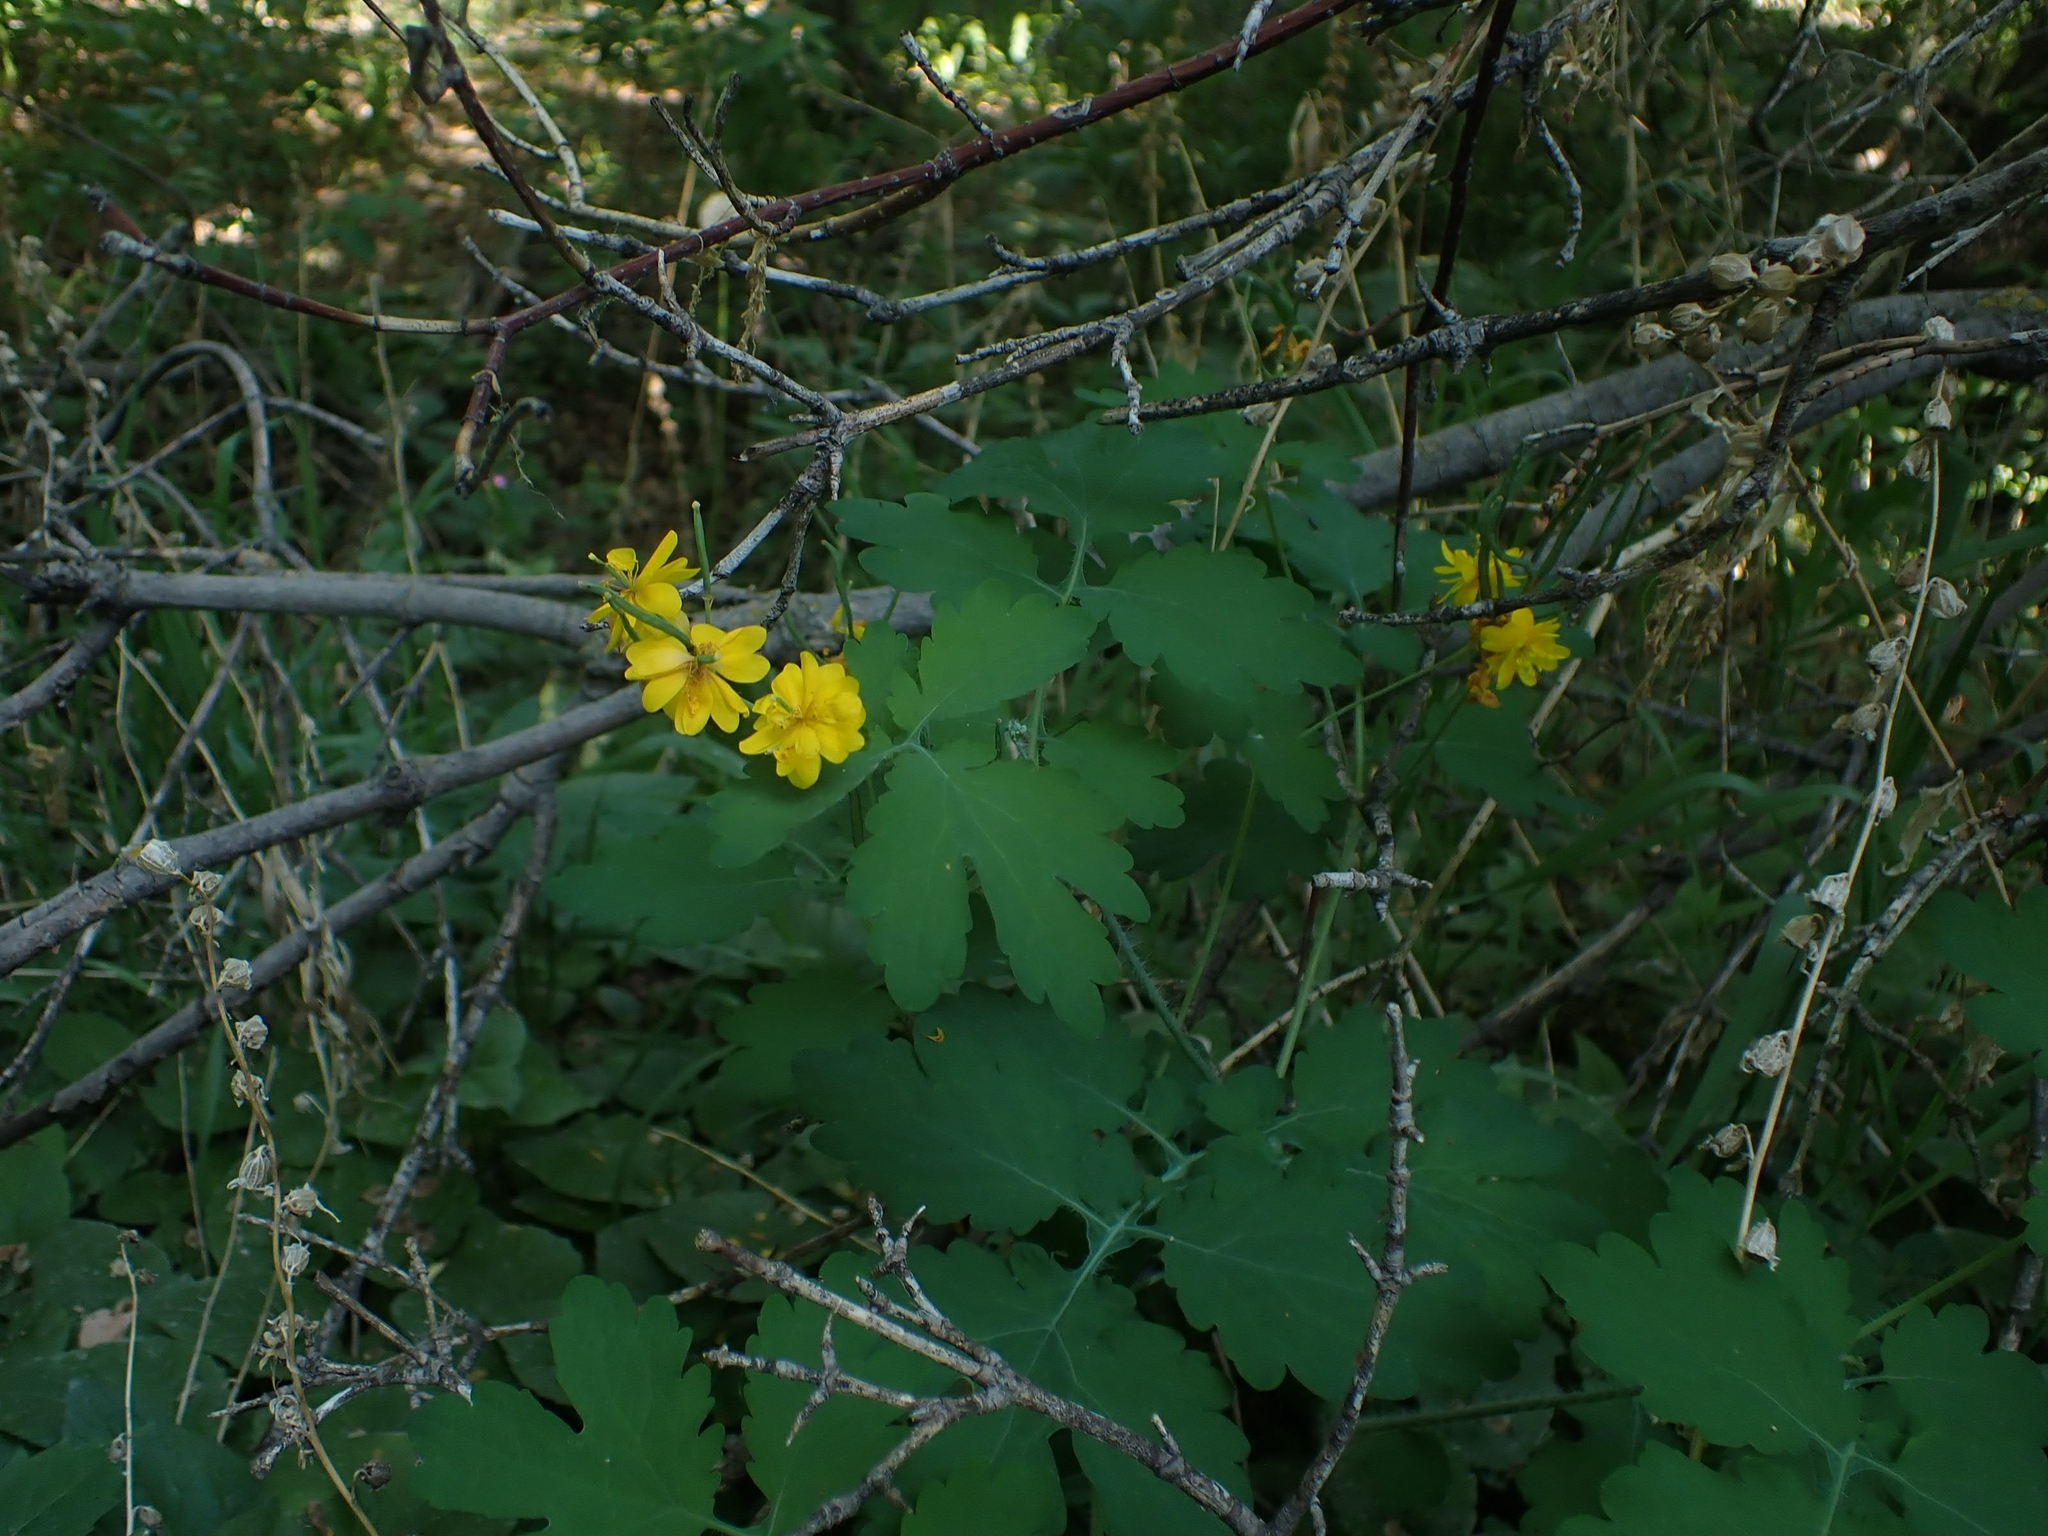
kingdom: Plantae
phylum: Tracheophyta
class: Magnoliopsida
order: Ranunculales
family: Papaveraceae
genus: Chelidonium
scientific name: Chelidonium majus
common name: Greater celandine
